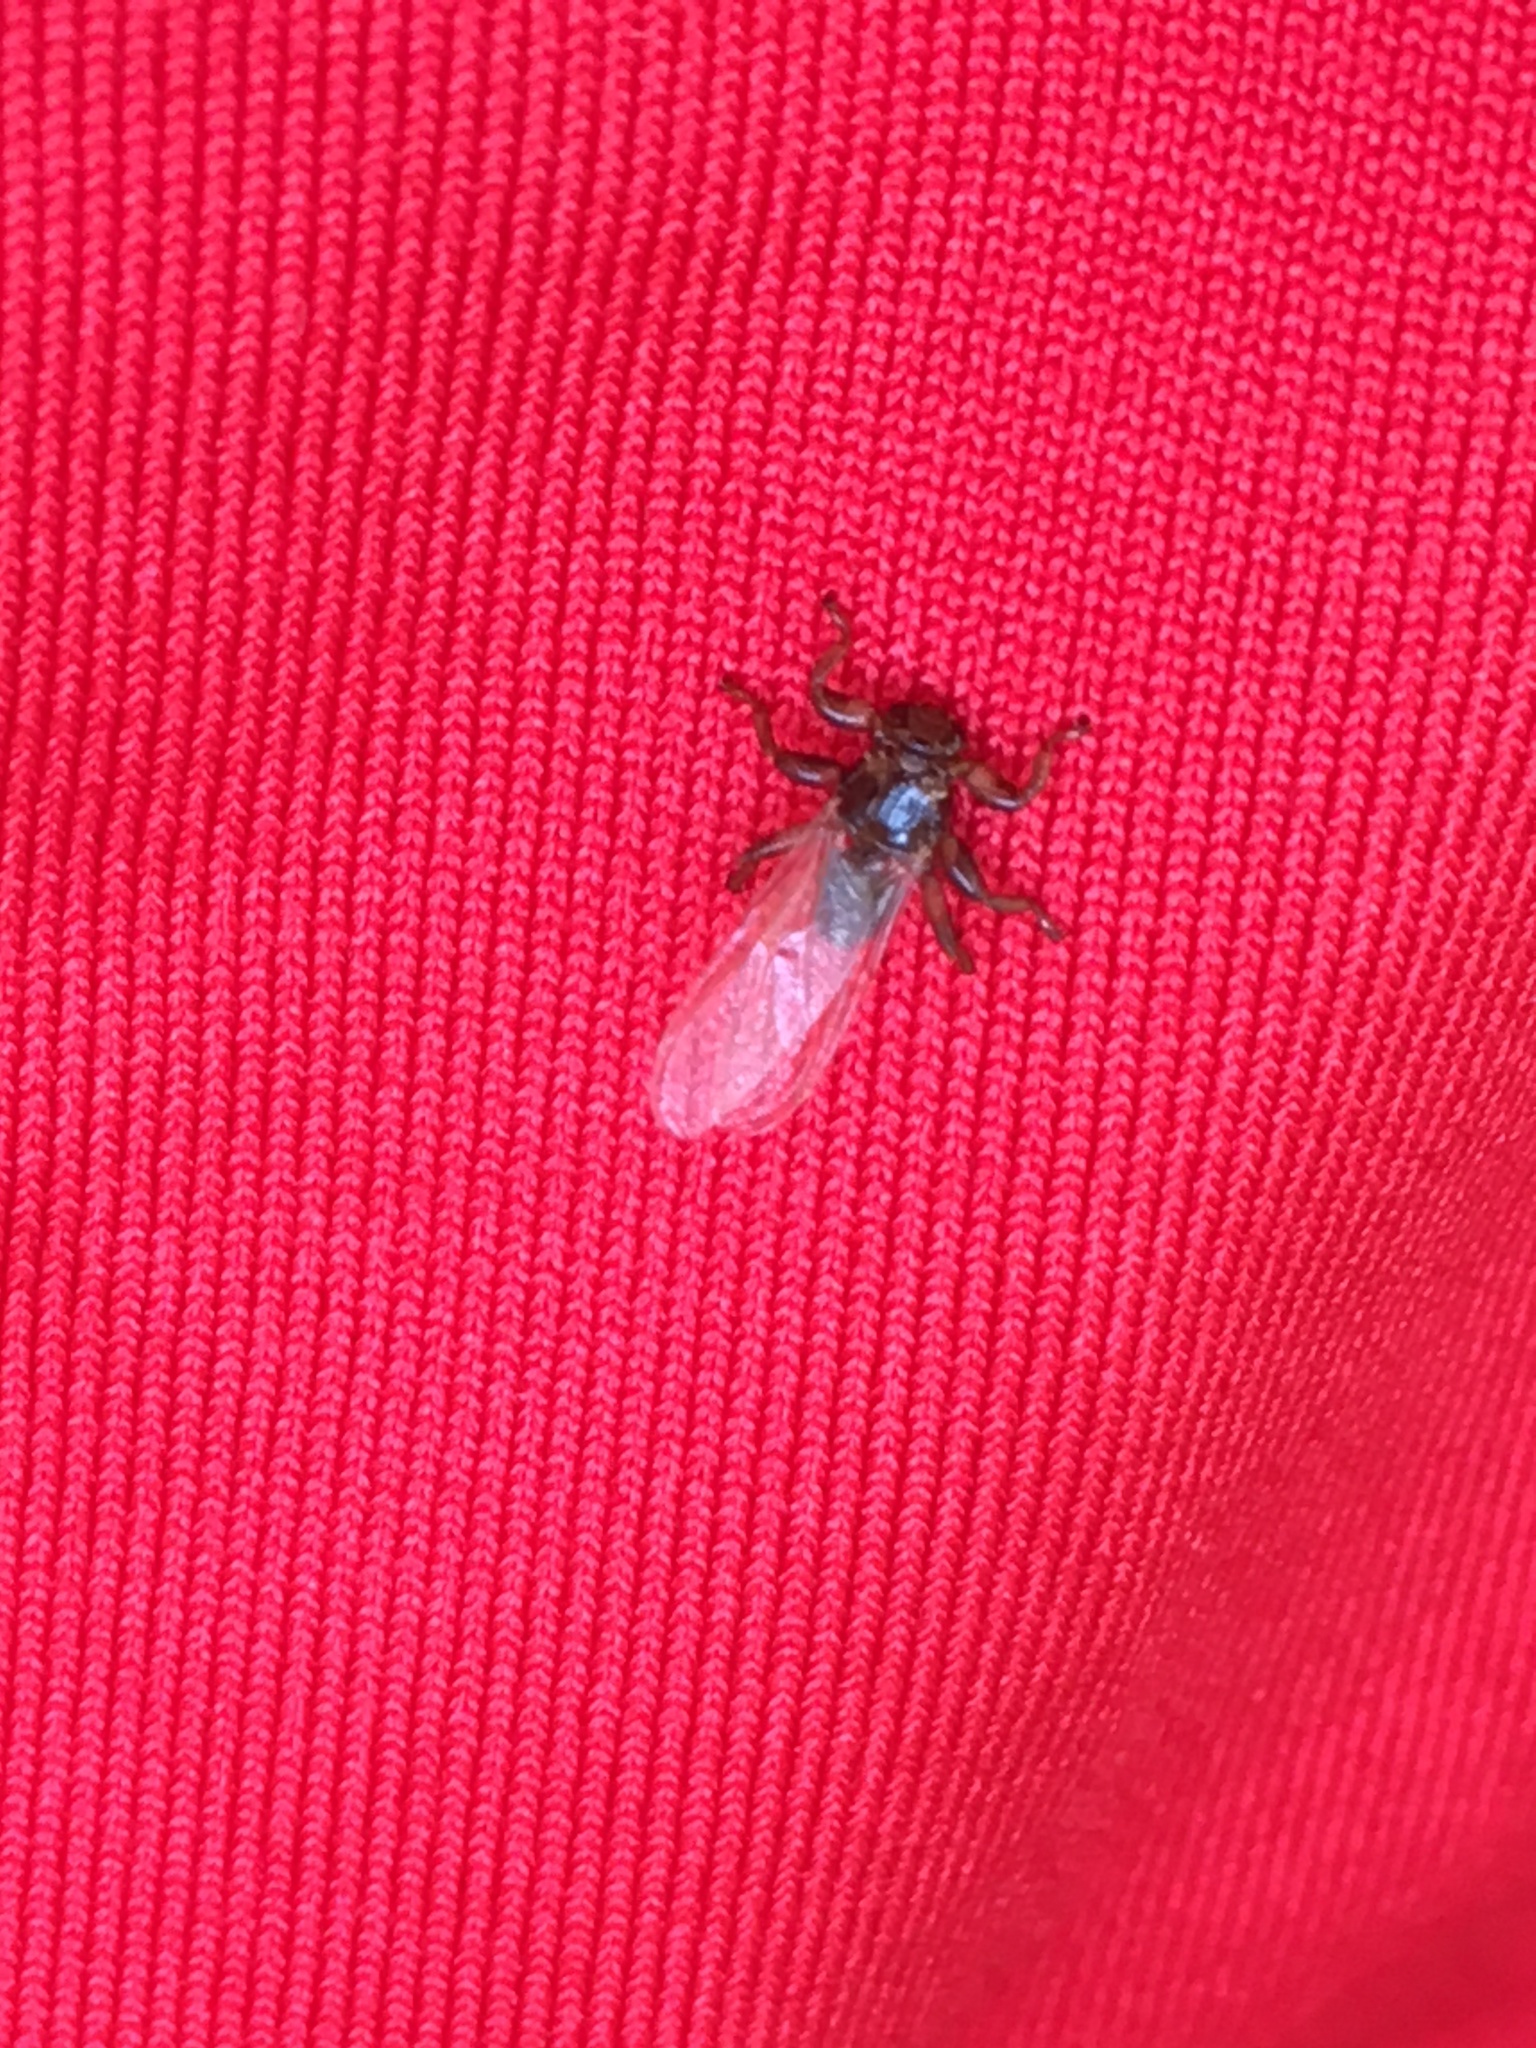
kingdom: Animalia
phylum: Arthropoda
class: Insecta
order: Diptera
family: Hippoboscidae
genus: Lipoptena
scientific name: Lipoptena cervi
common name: Deer ked
